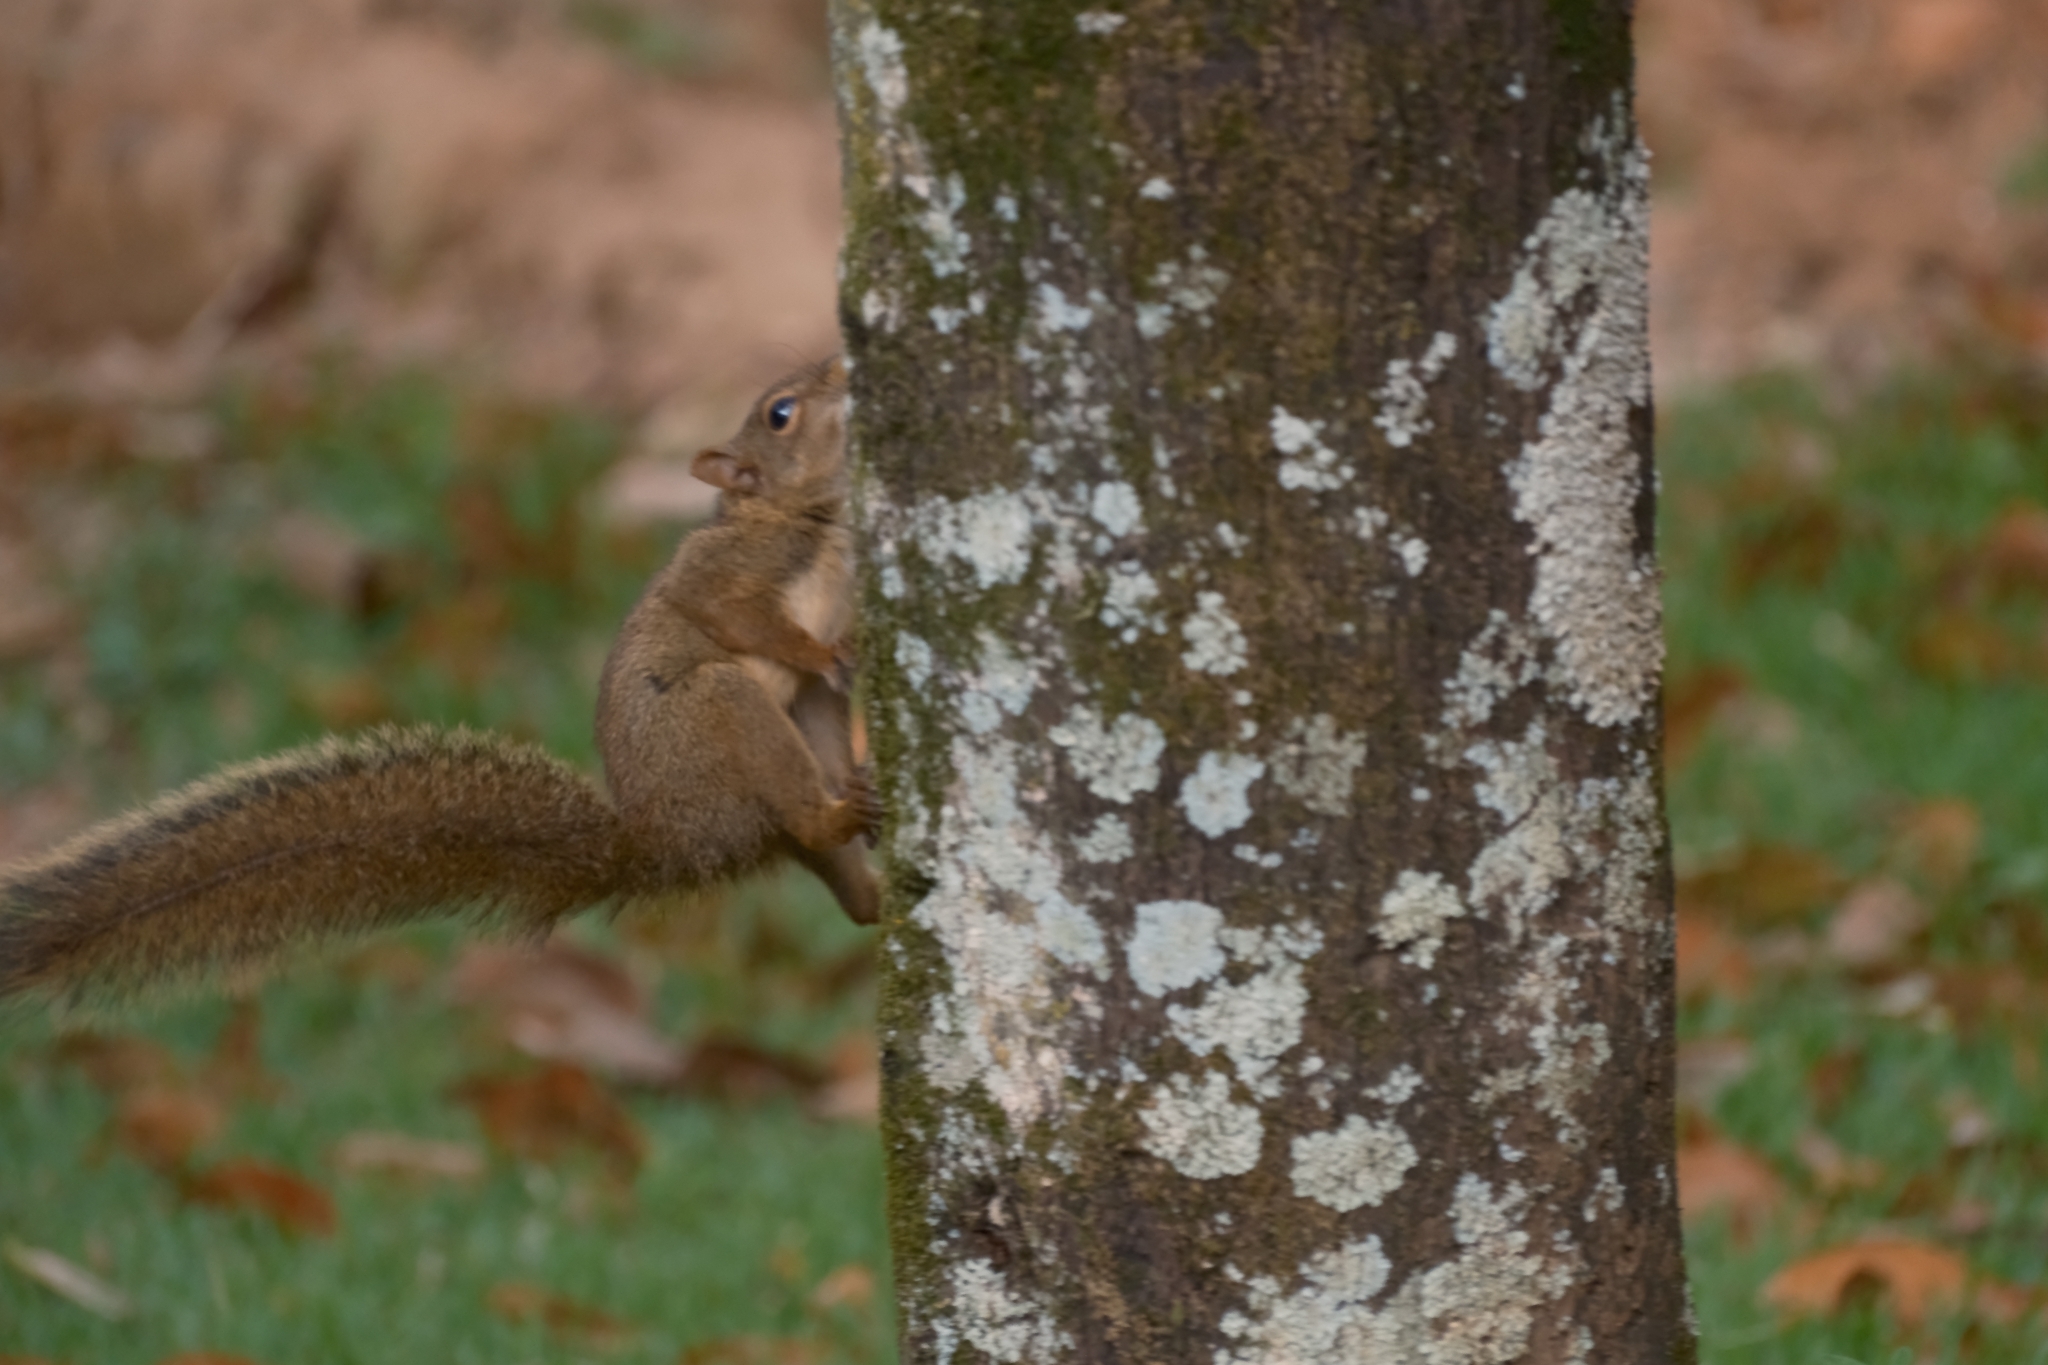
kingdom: Animalia
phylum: Chordata
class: Mammalia
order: Rodentia
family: Sciuridae
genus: Sciurus
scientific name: Sciurus aestuans
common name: Guianan squirrel
